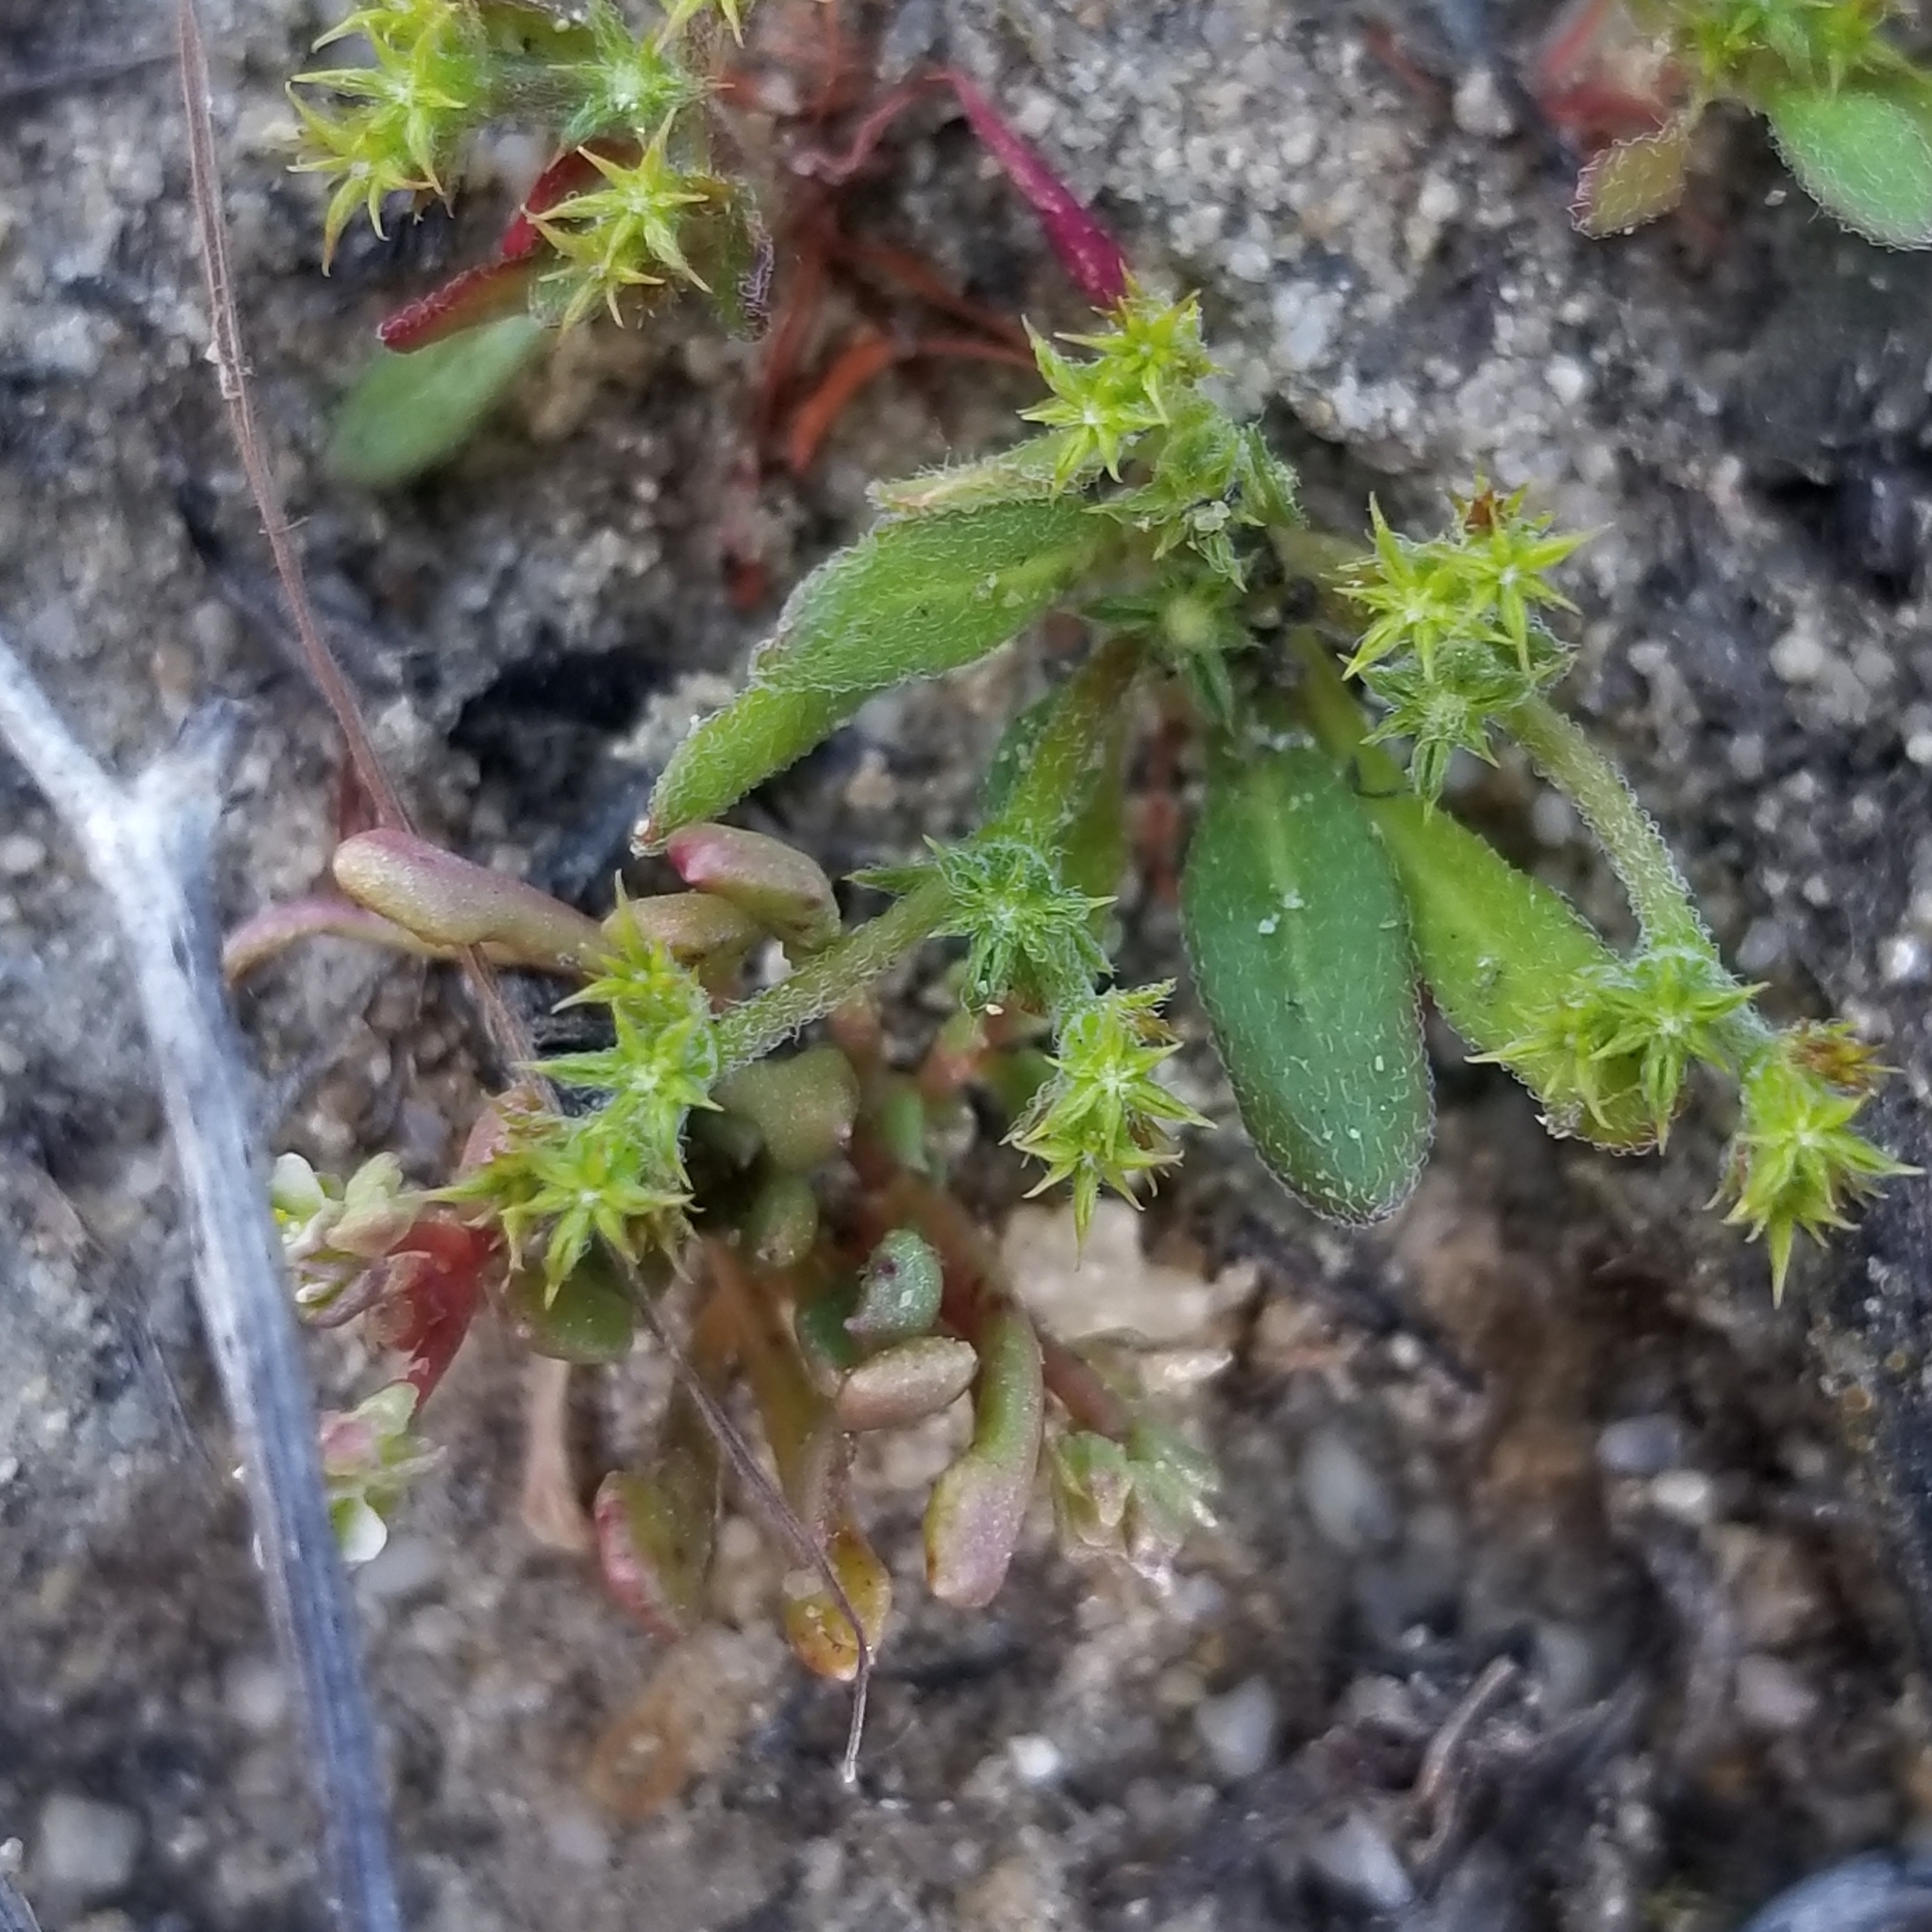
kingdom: Plantae
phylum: Tracheophyta
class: Magnoliopsida
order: Caryophyllales
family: Polygonaceae
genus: Chorizanthe
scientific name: Chorizanthe procumbens
